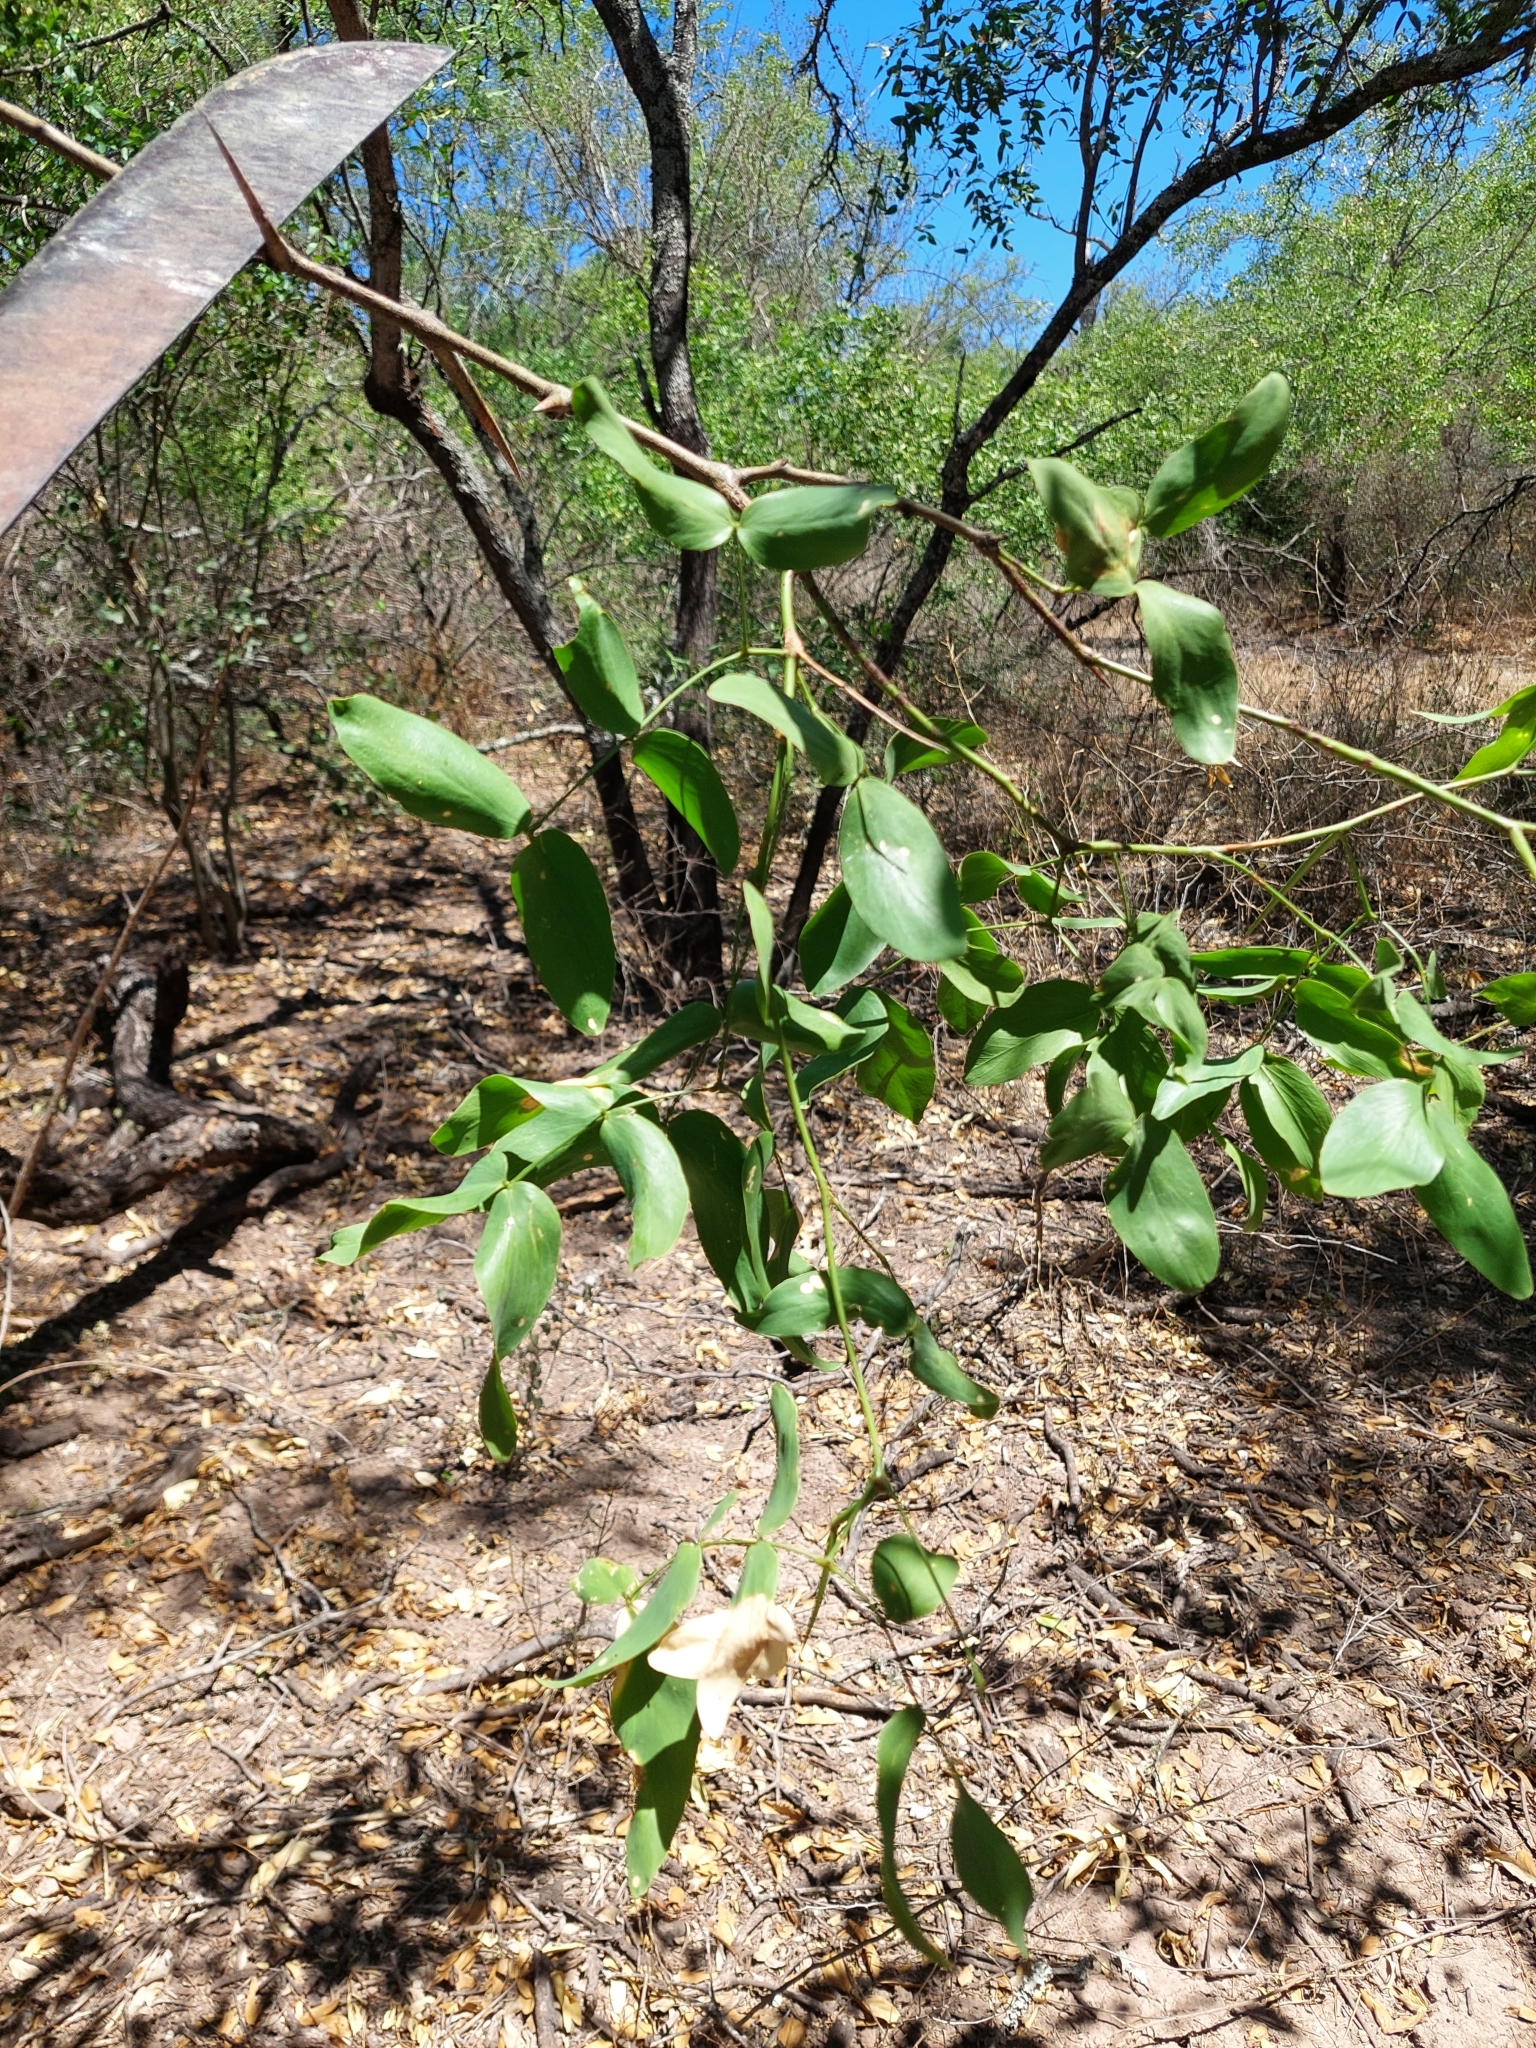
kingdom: Plantae
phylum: Tracheophyta
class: Magnoliopsida
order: Fabales
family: Fabaceae
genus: Prosopis
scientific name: Prosopis ruscifolia
